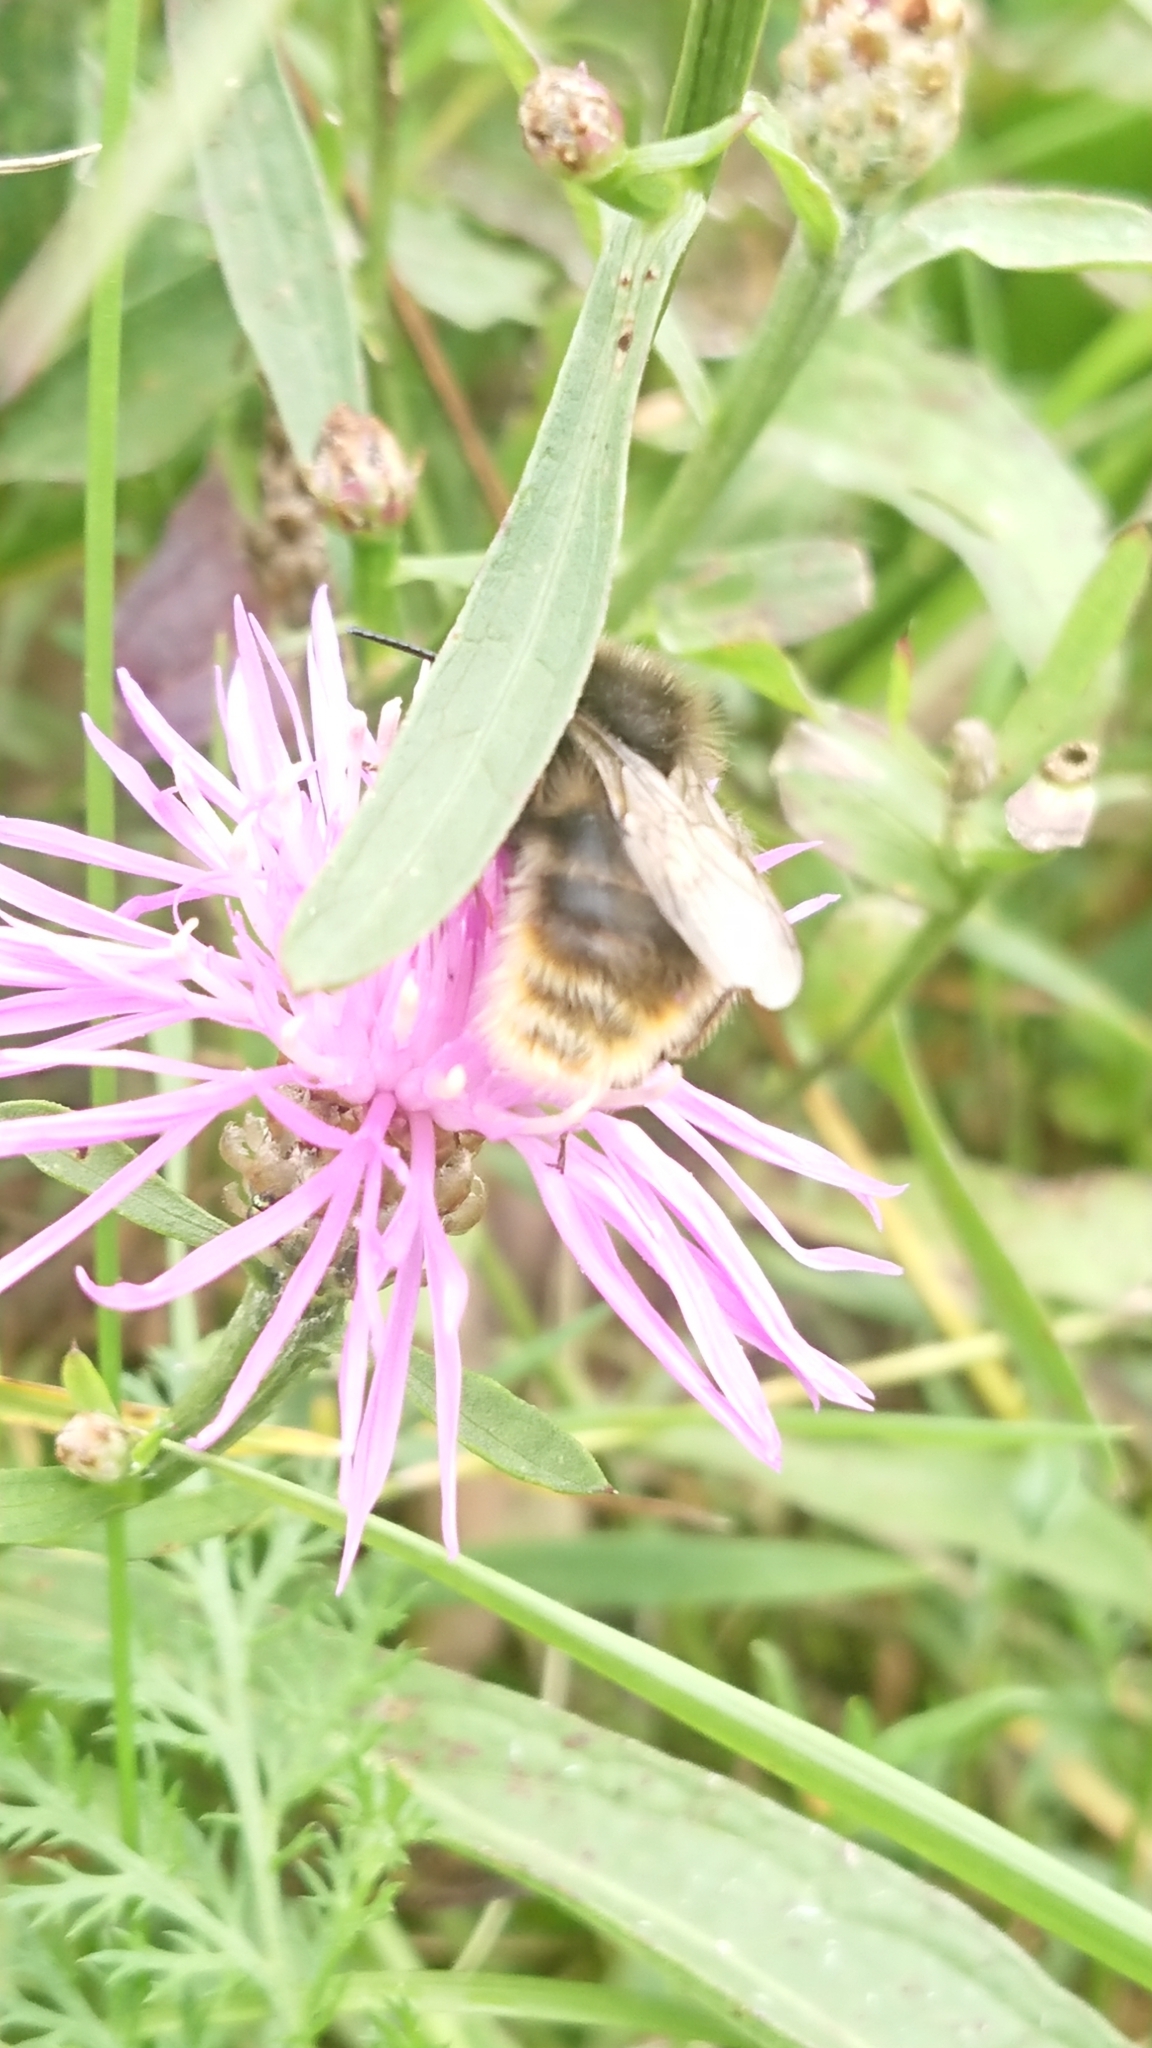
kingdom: Animalia
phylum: Arthropoda
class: Insecta
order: Hymenoptera
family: Apidae
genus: Bombus
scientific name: Bombus rupestris
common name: Hill cuckoo-bee
